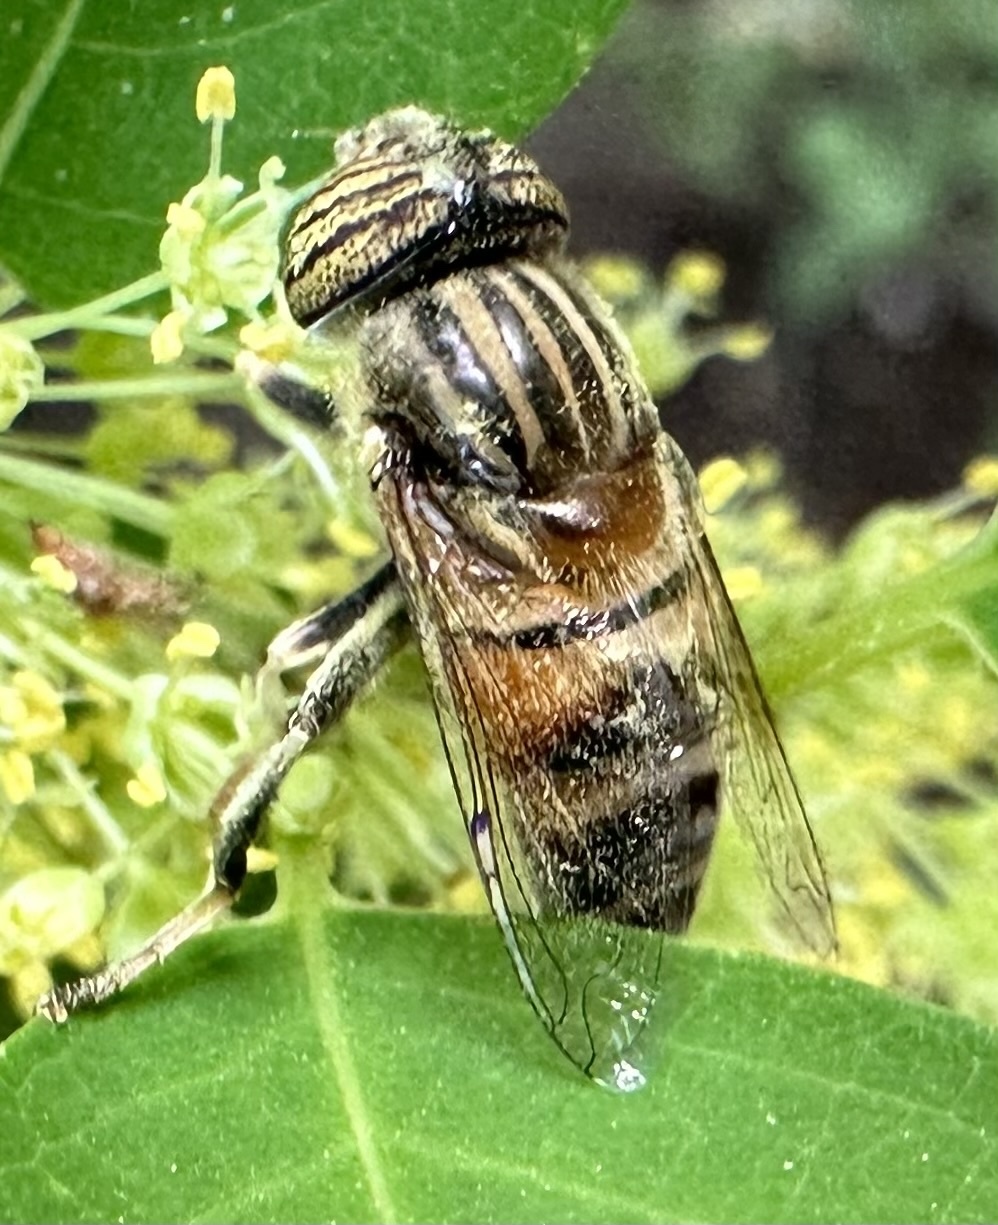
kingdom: Animalia
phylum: Arthropoda
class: Insecta
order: Diptera
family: Syrphidae
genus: Eristalinus
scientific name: Eristalinus quinquelineatus
